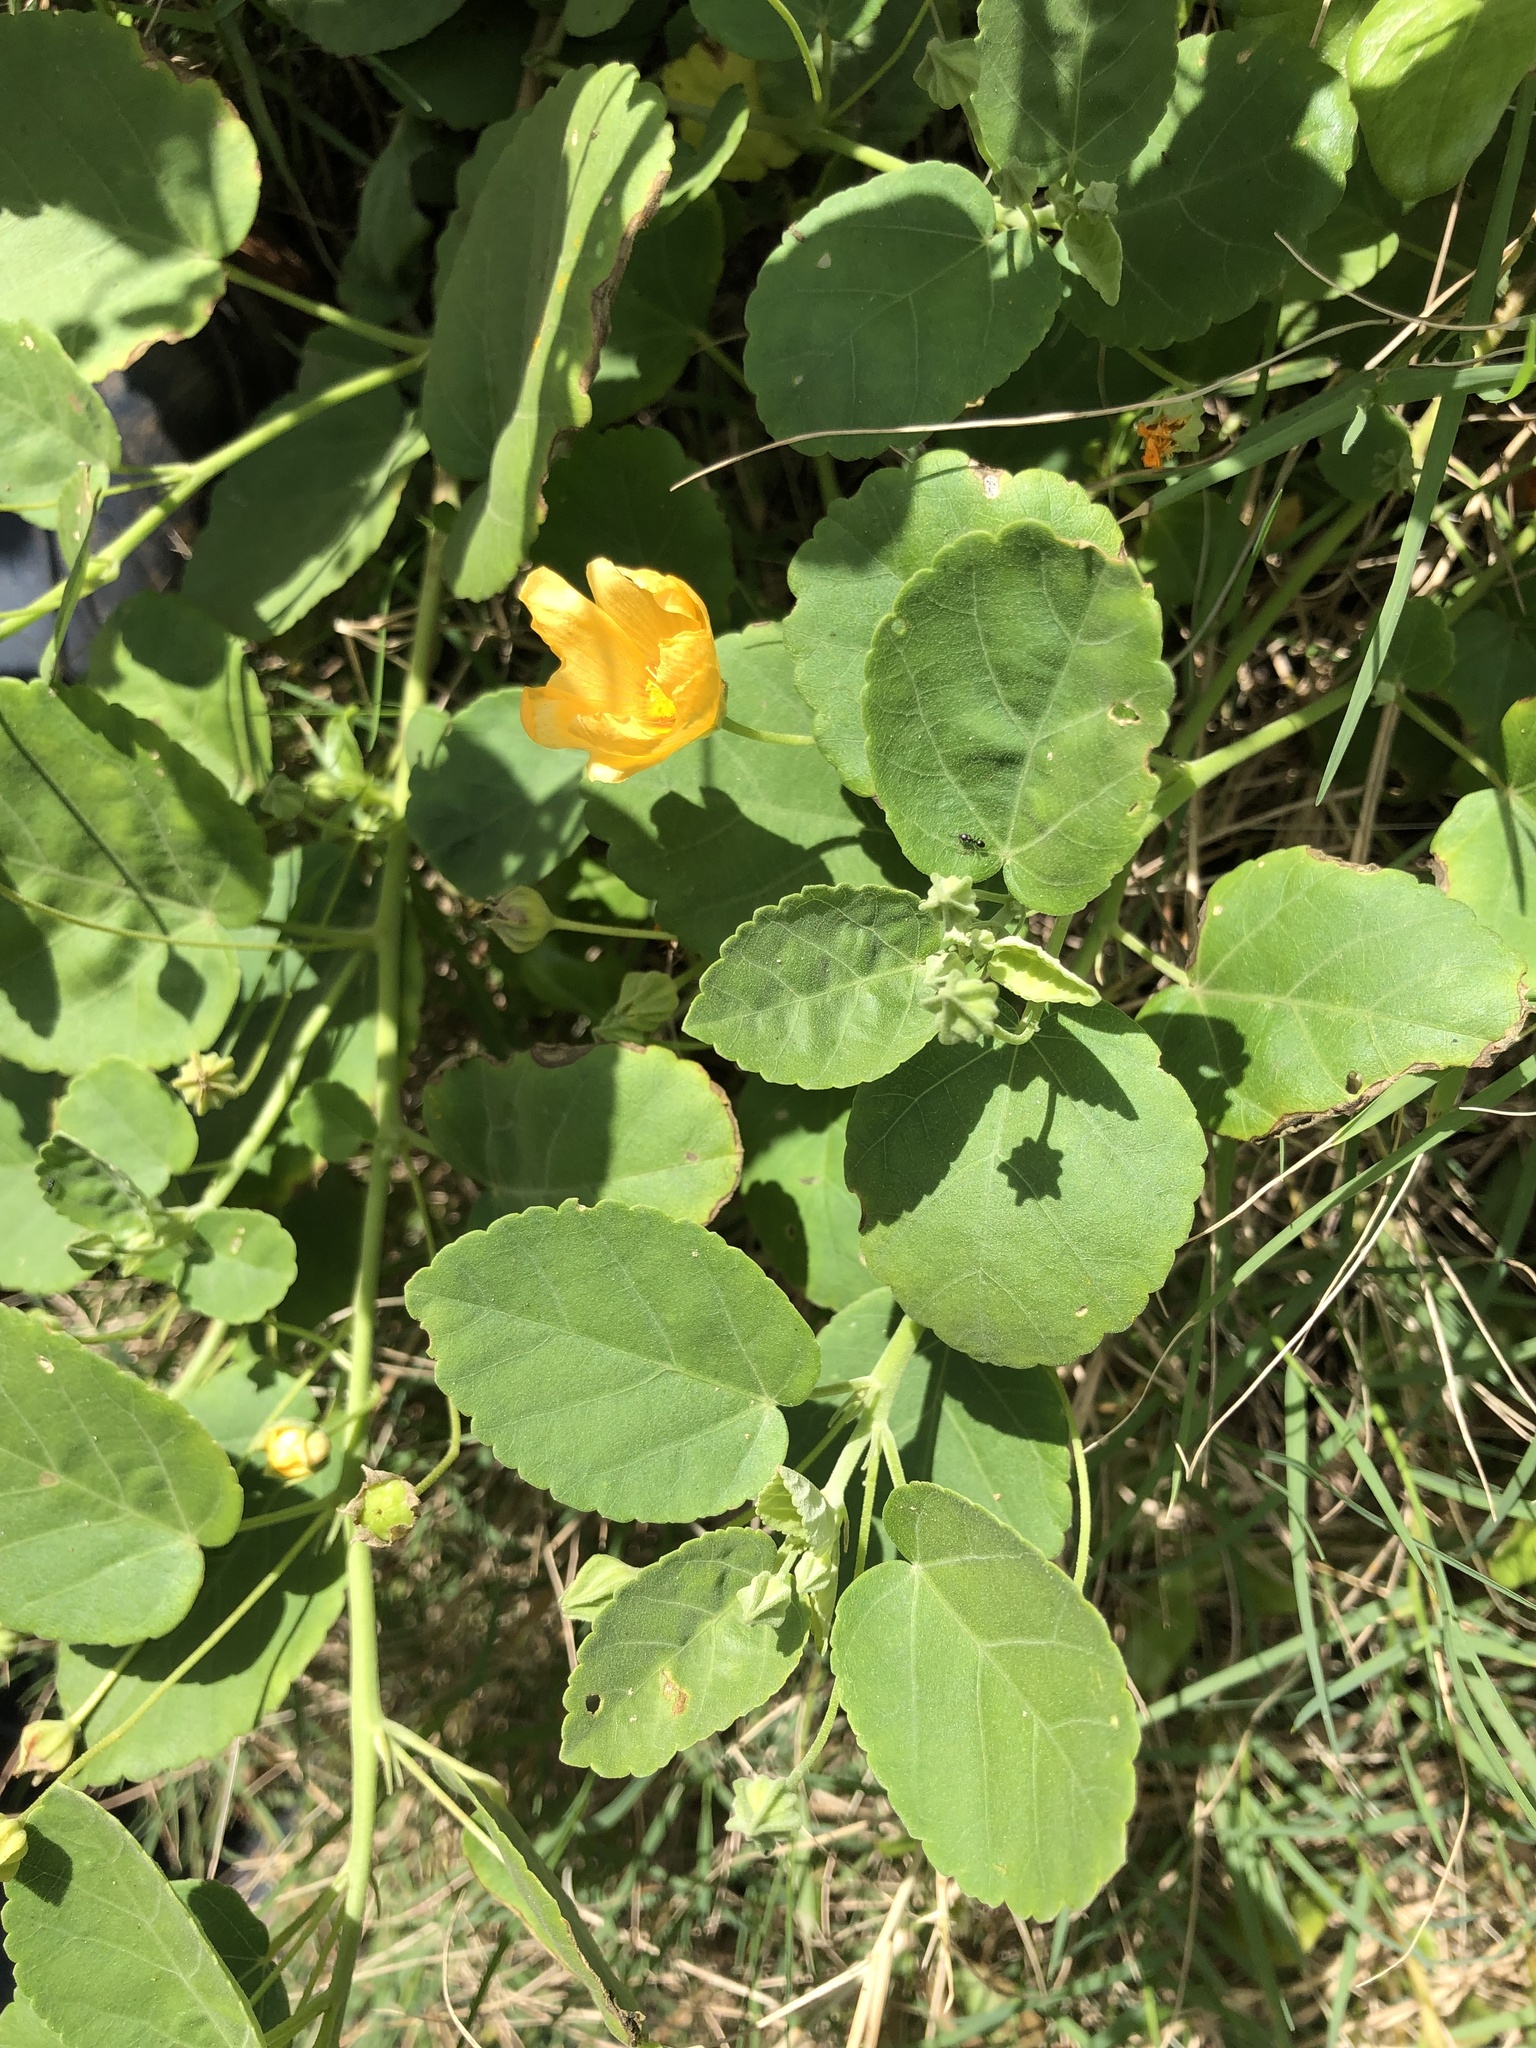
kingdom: Plantae
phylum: Tracheophyta
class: Magnoliopsida
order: Malvales
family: Malvaceae
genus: Sida
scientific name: Sida fallax
